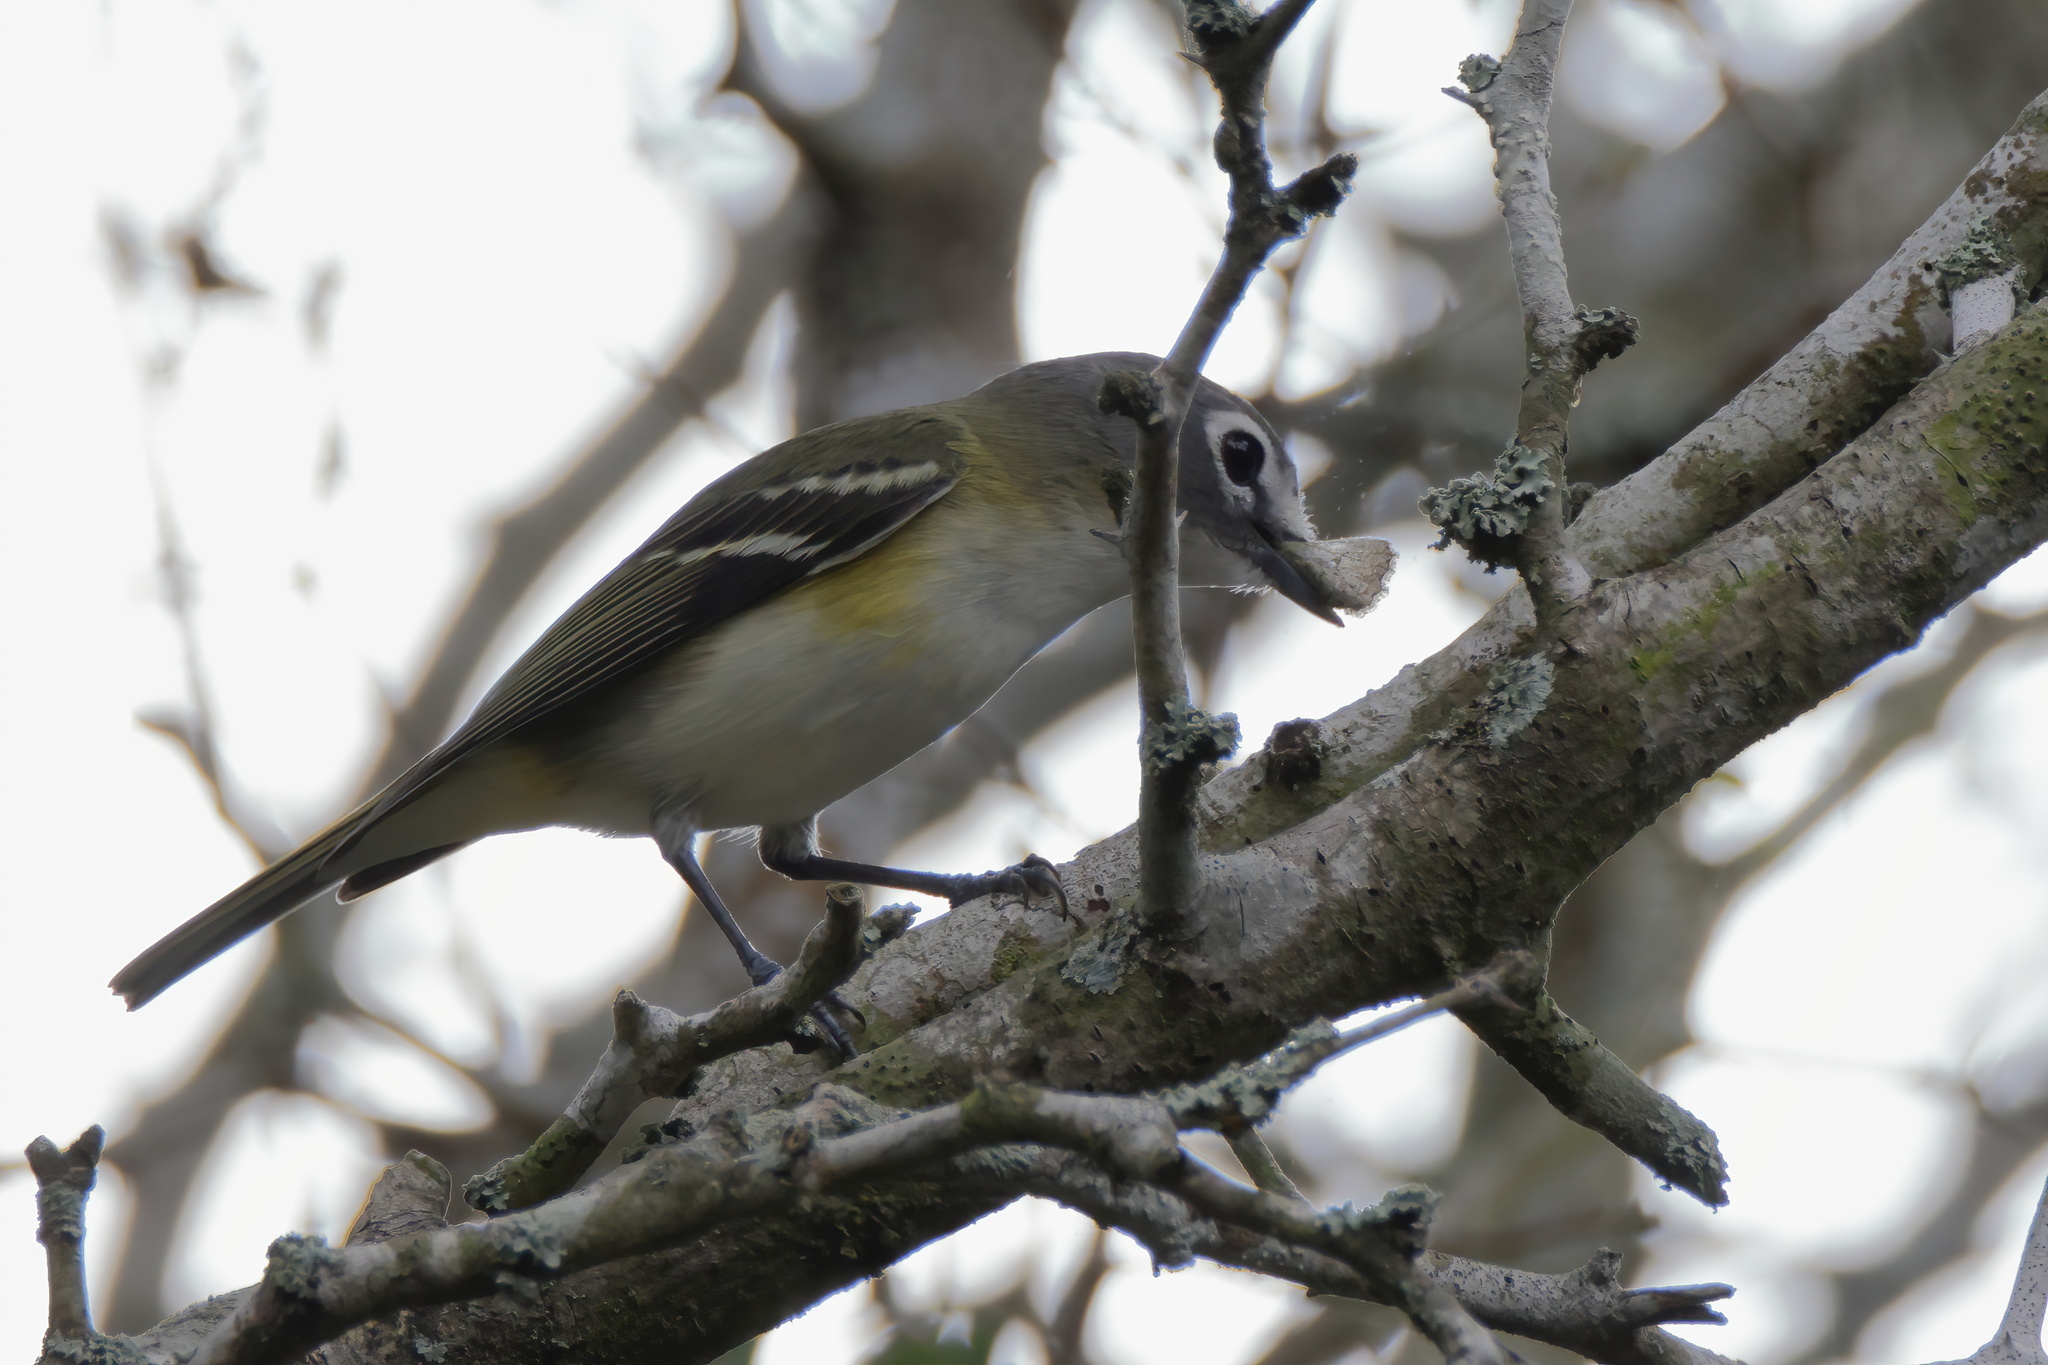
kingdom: Animalia
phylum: Chordata
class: Aves
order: Passeriformes
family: Vireonidae
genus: Vireo
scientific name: Vireo solitarius
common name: Blue-headed vireo
